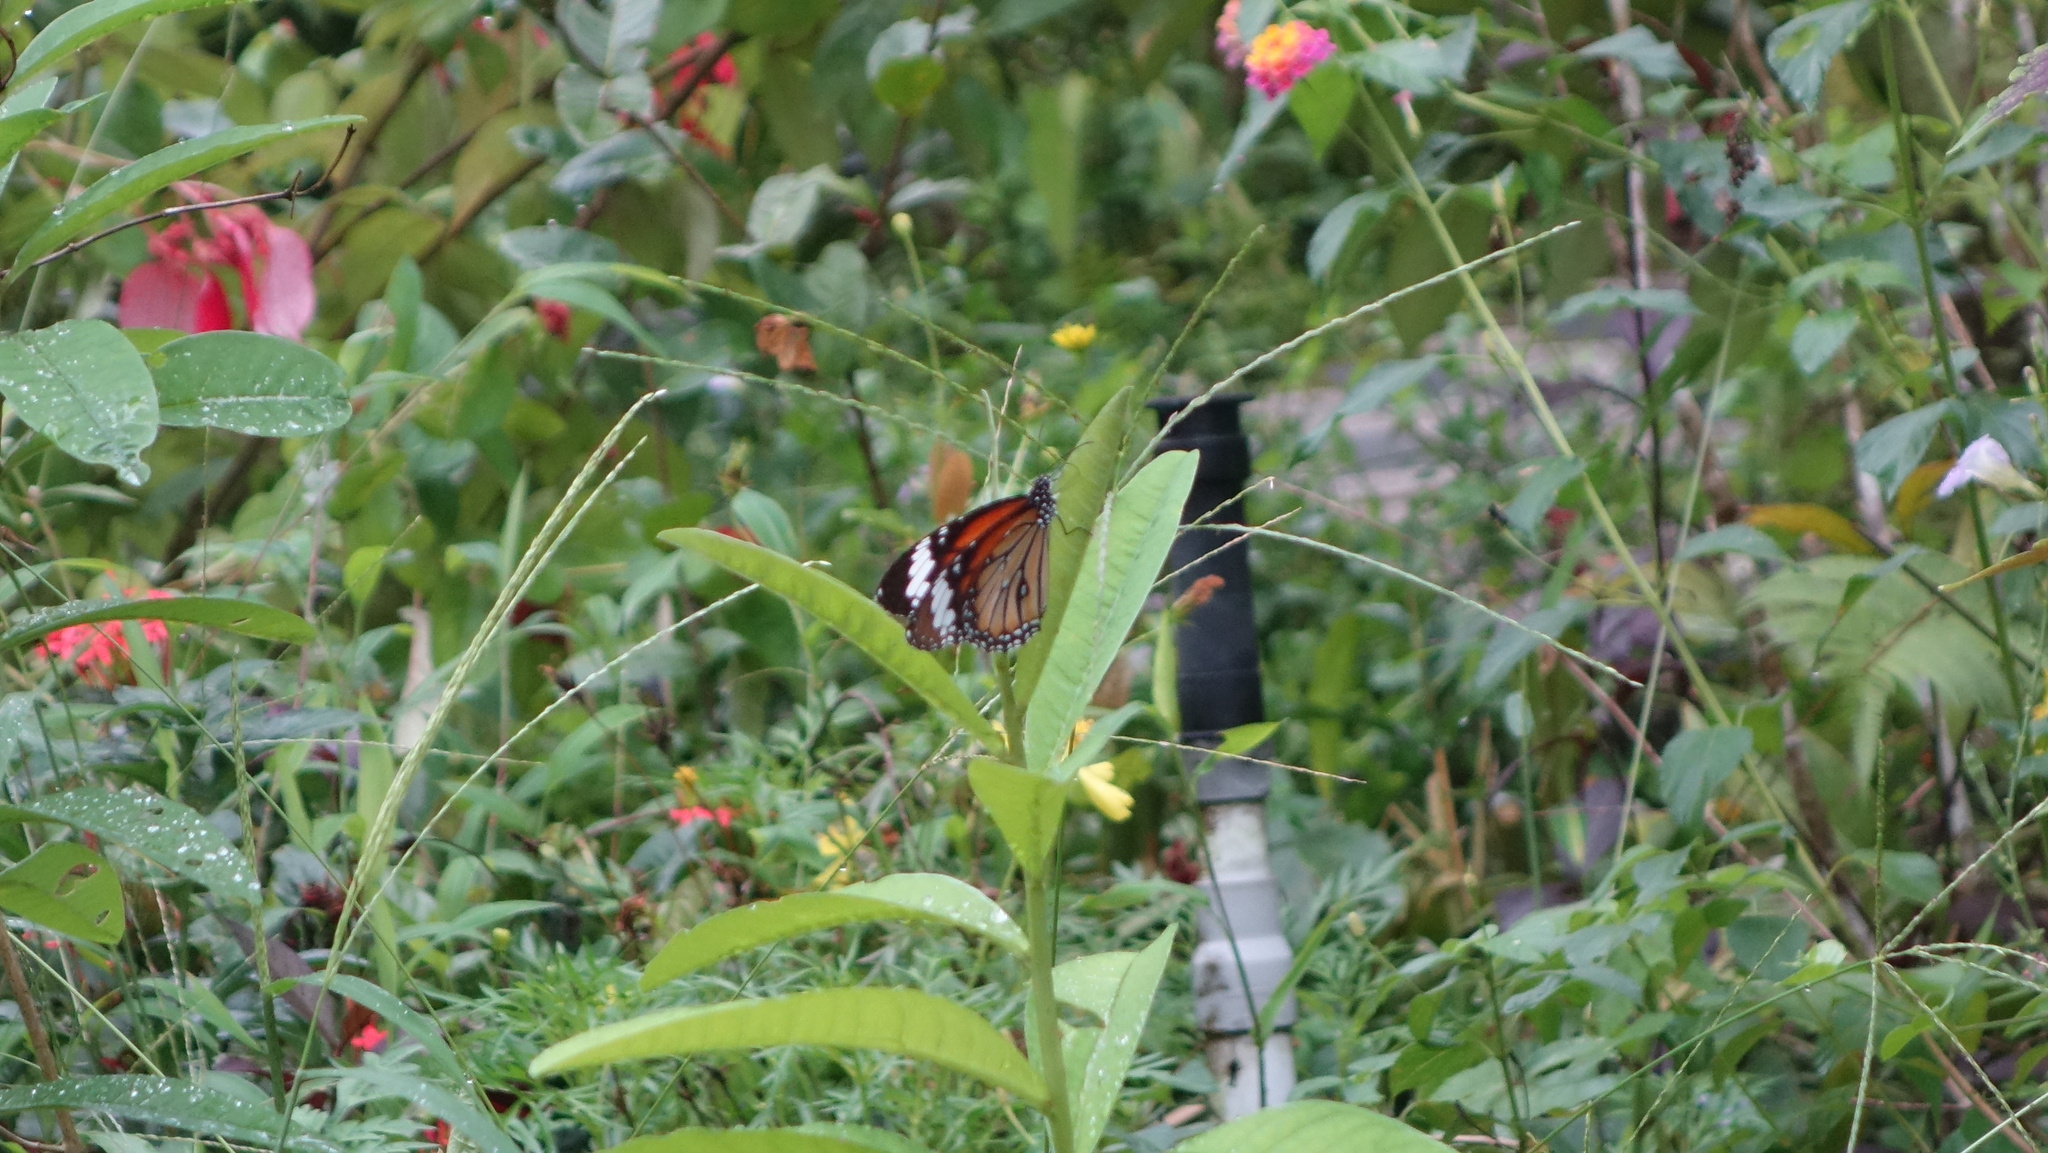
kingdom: Animalia
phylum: Arthropoda
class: Insecta
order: Lepidoptera
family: Nymphalidae
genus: Danaus
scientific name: Danaus genutia
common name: Common tiger butterfly
